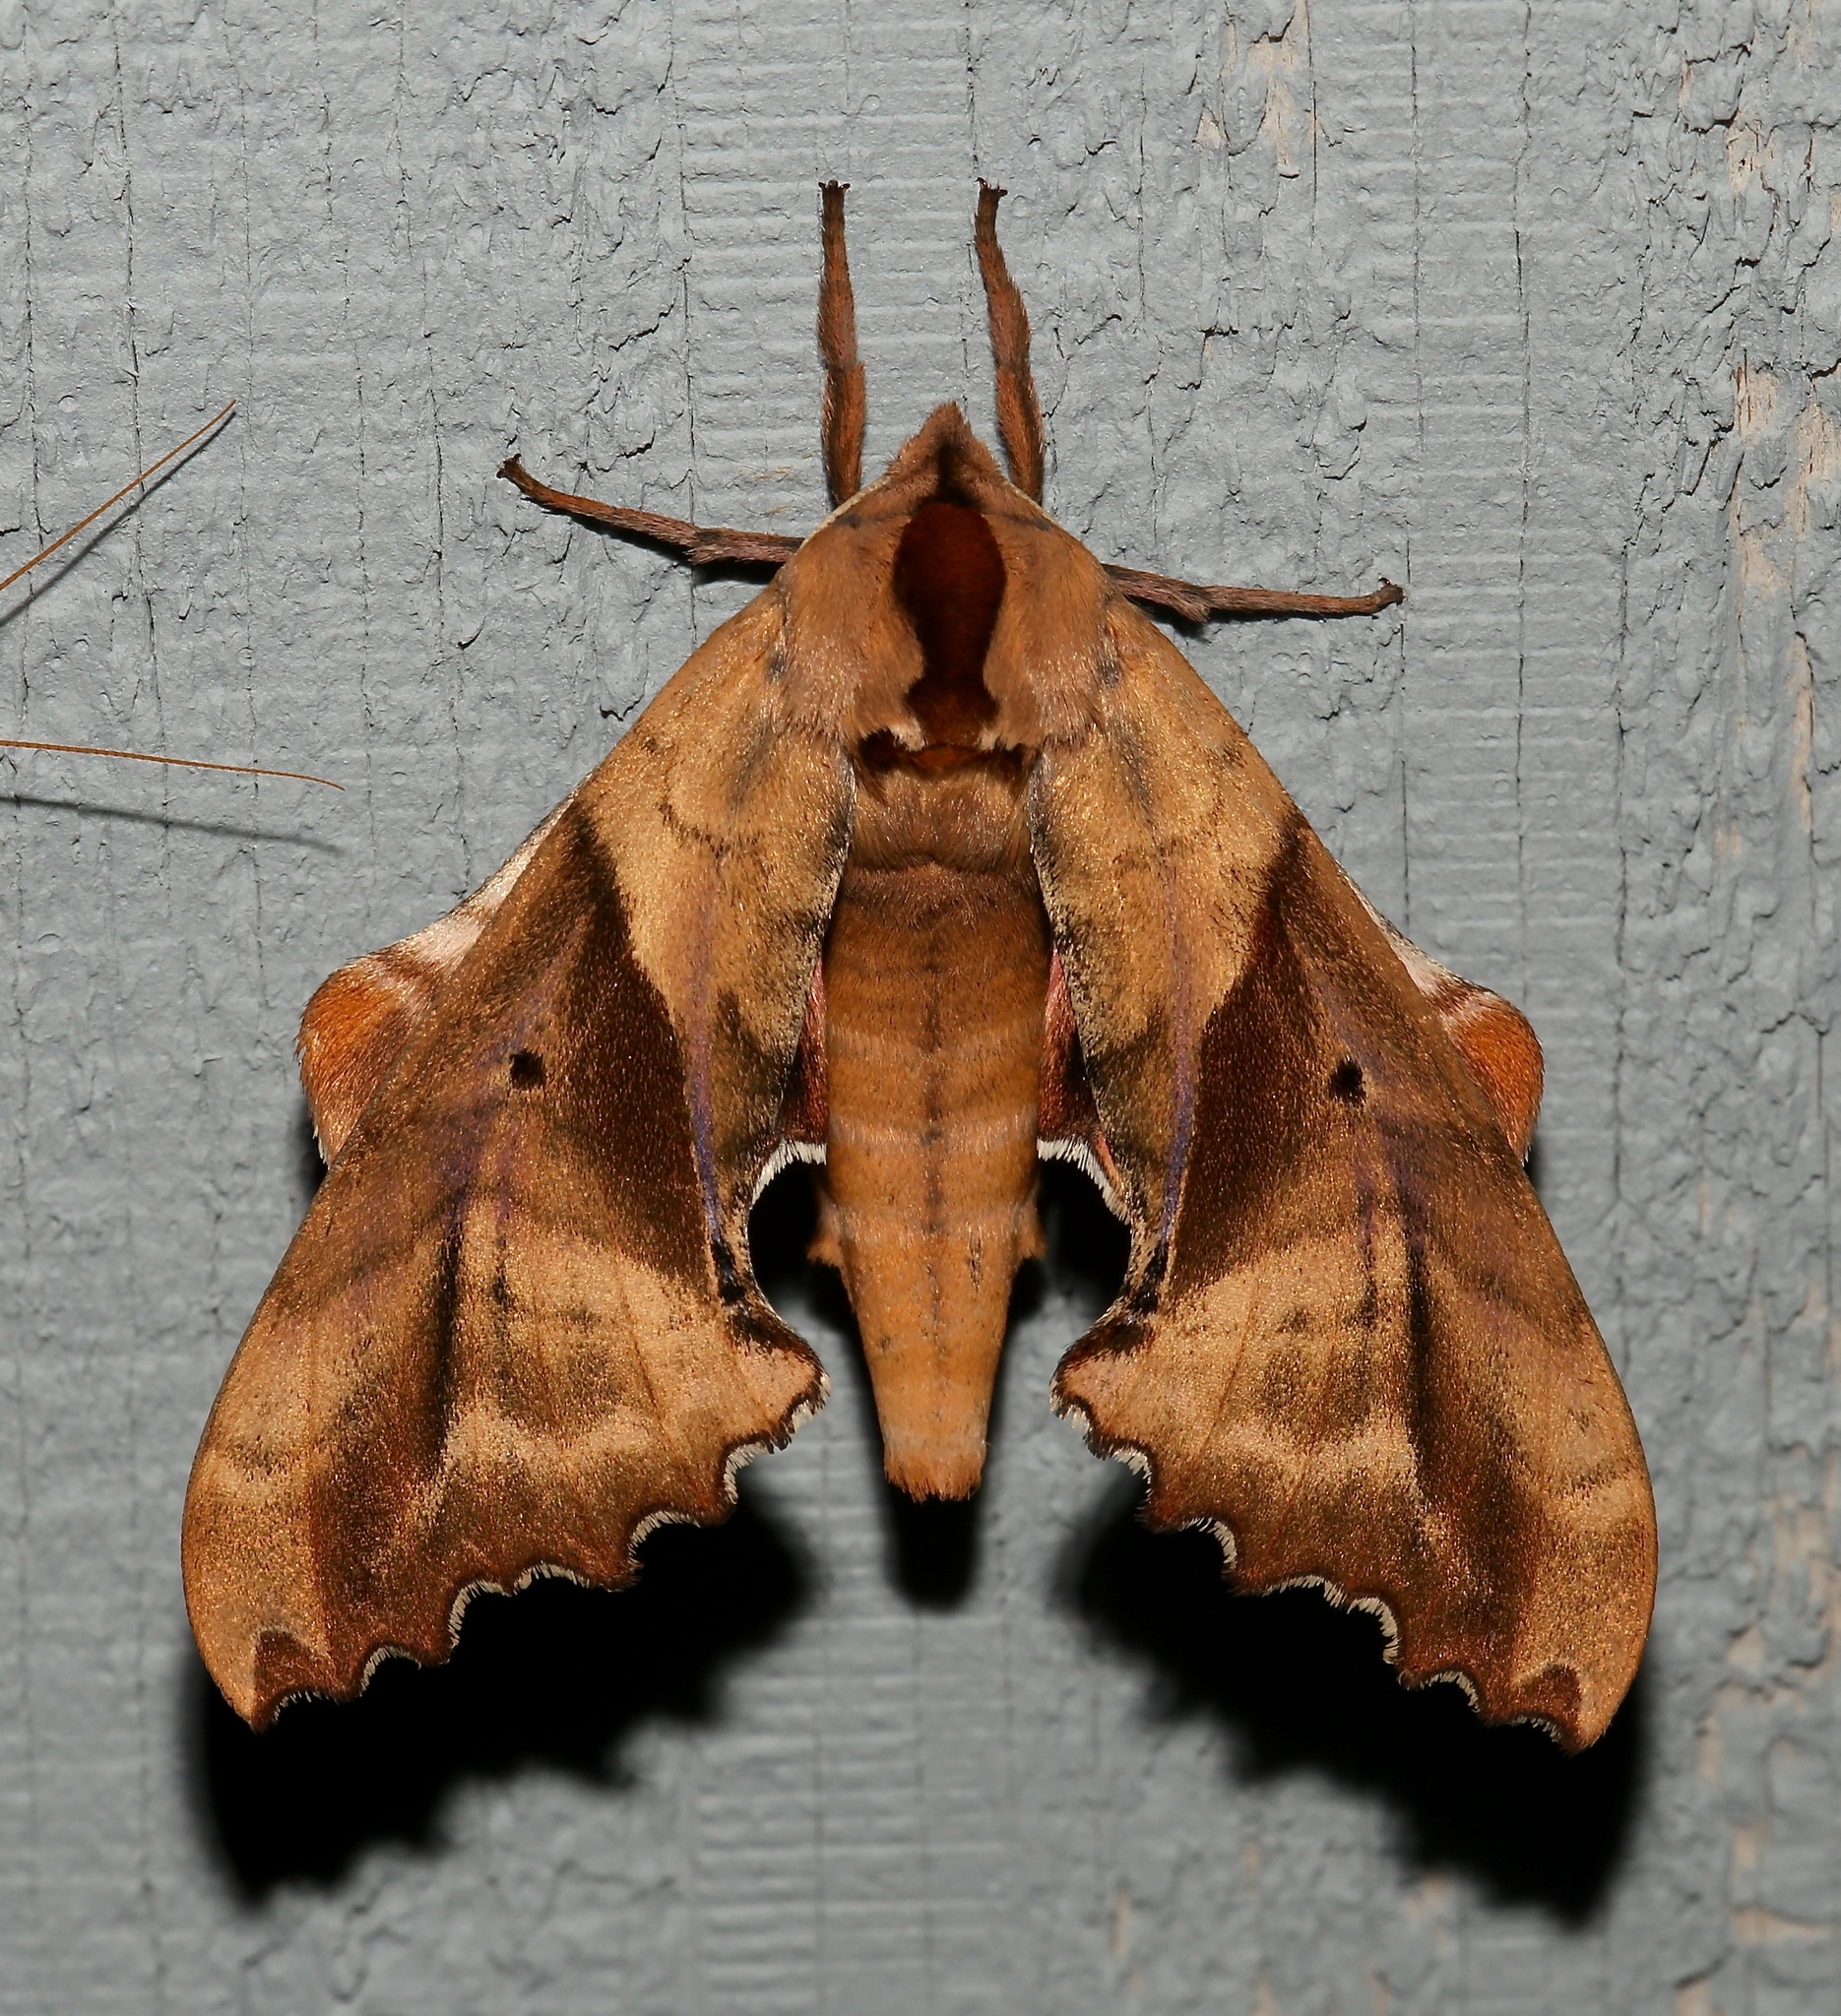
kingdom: Animalia
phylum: Arthropoda
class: Insecta
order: Lepidoptera
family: Sphingidae
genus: Paonias
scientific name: Paonias excaecata
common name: Blind-eyed sphinx
